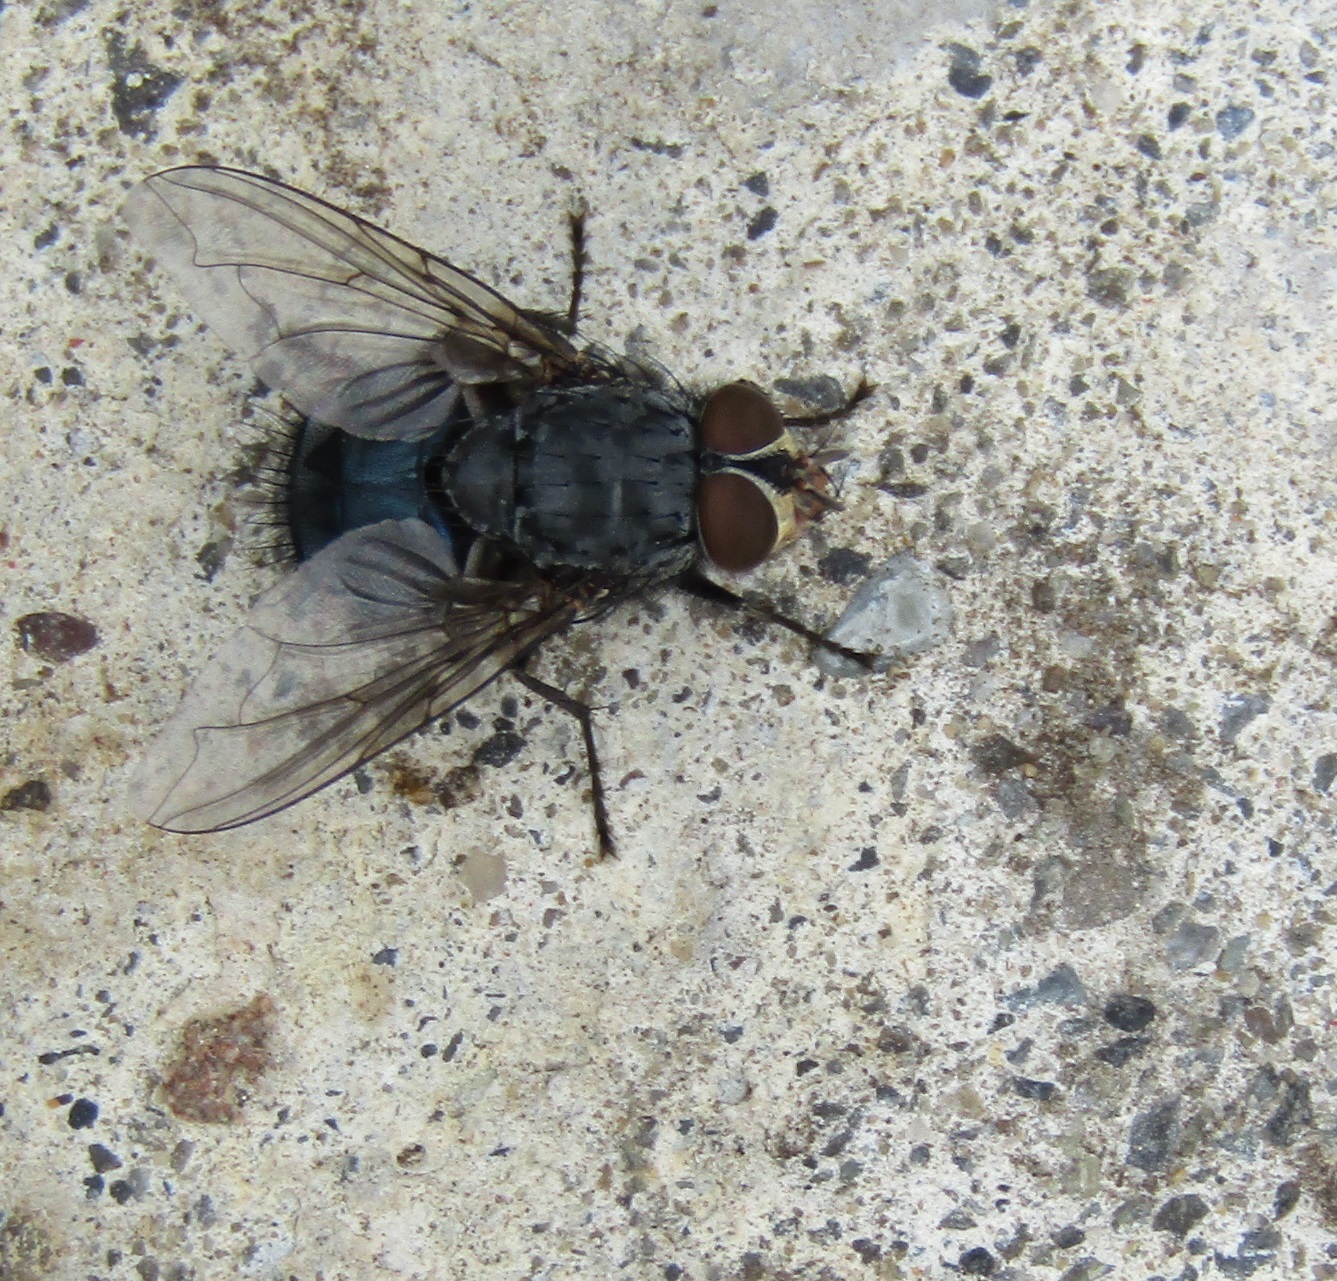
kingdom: Animalia
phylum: Arthropoda
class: Insecta
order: Diptera
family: Calliphoridae
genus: Calliphora
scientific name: Calliphora vicina
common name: Common blow flie
